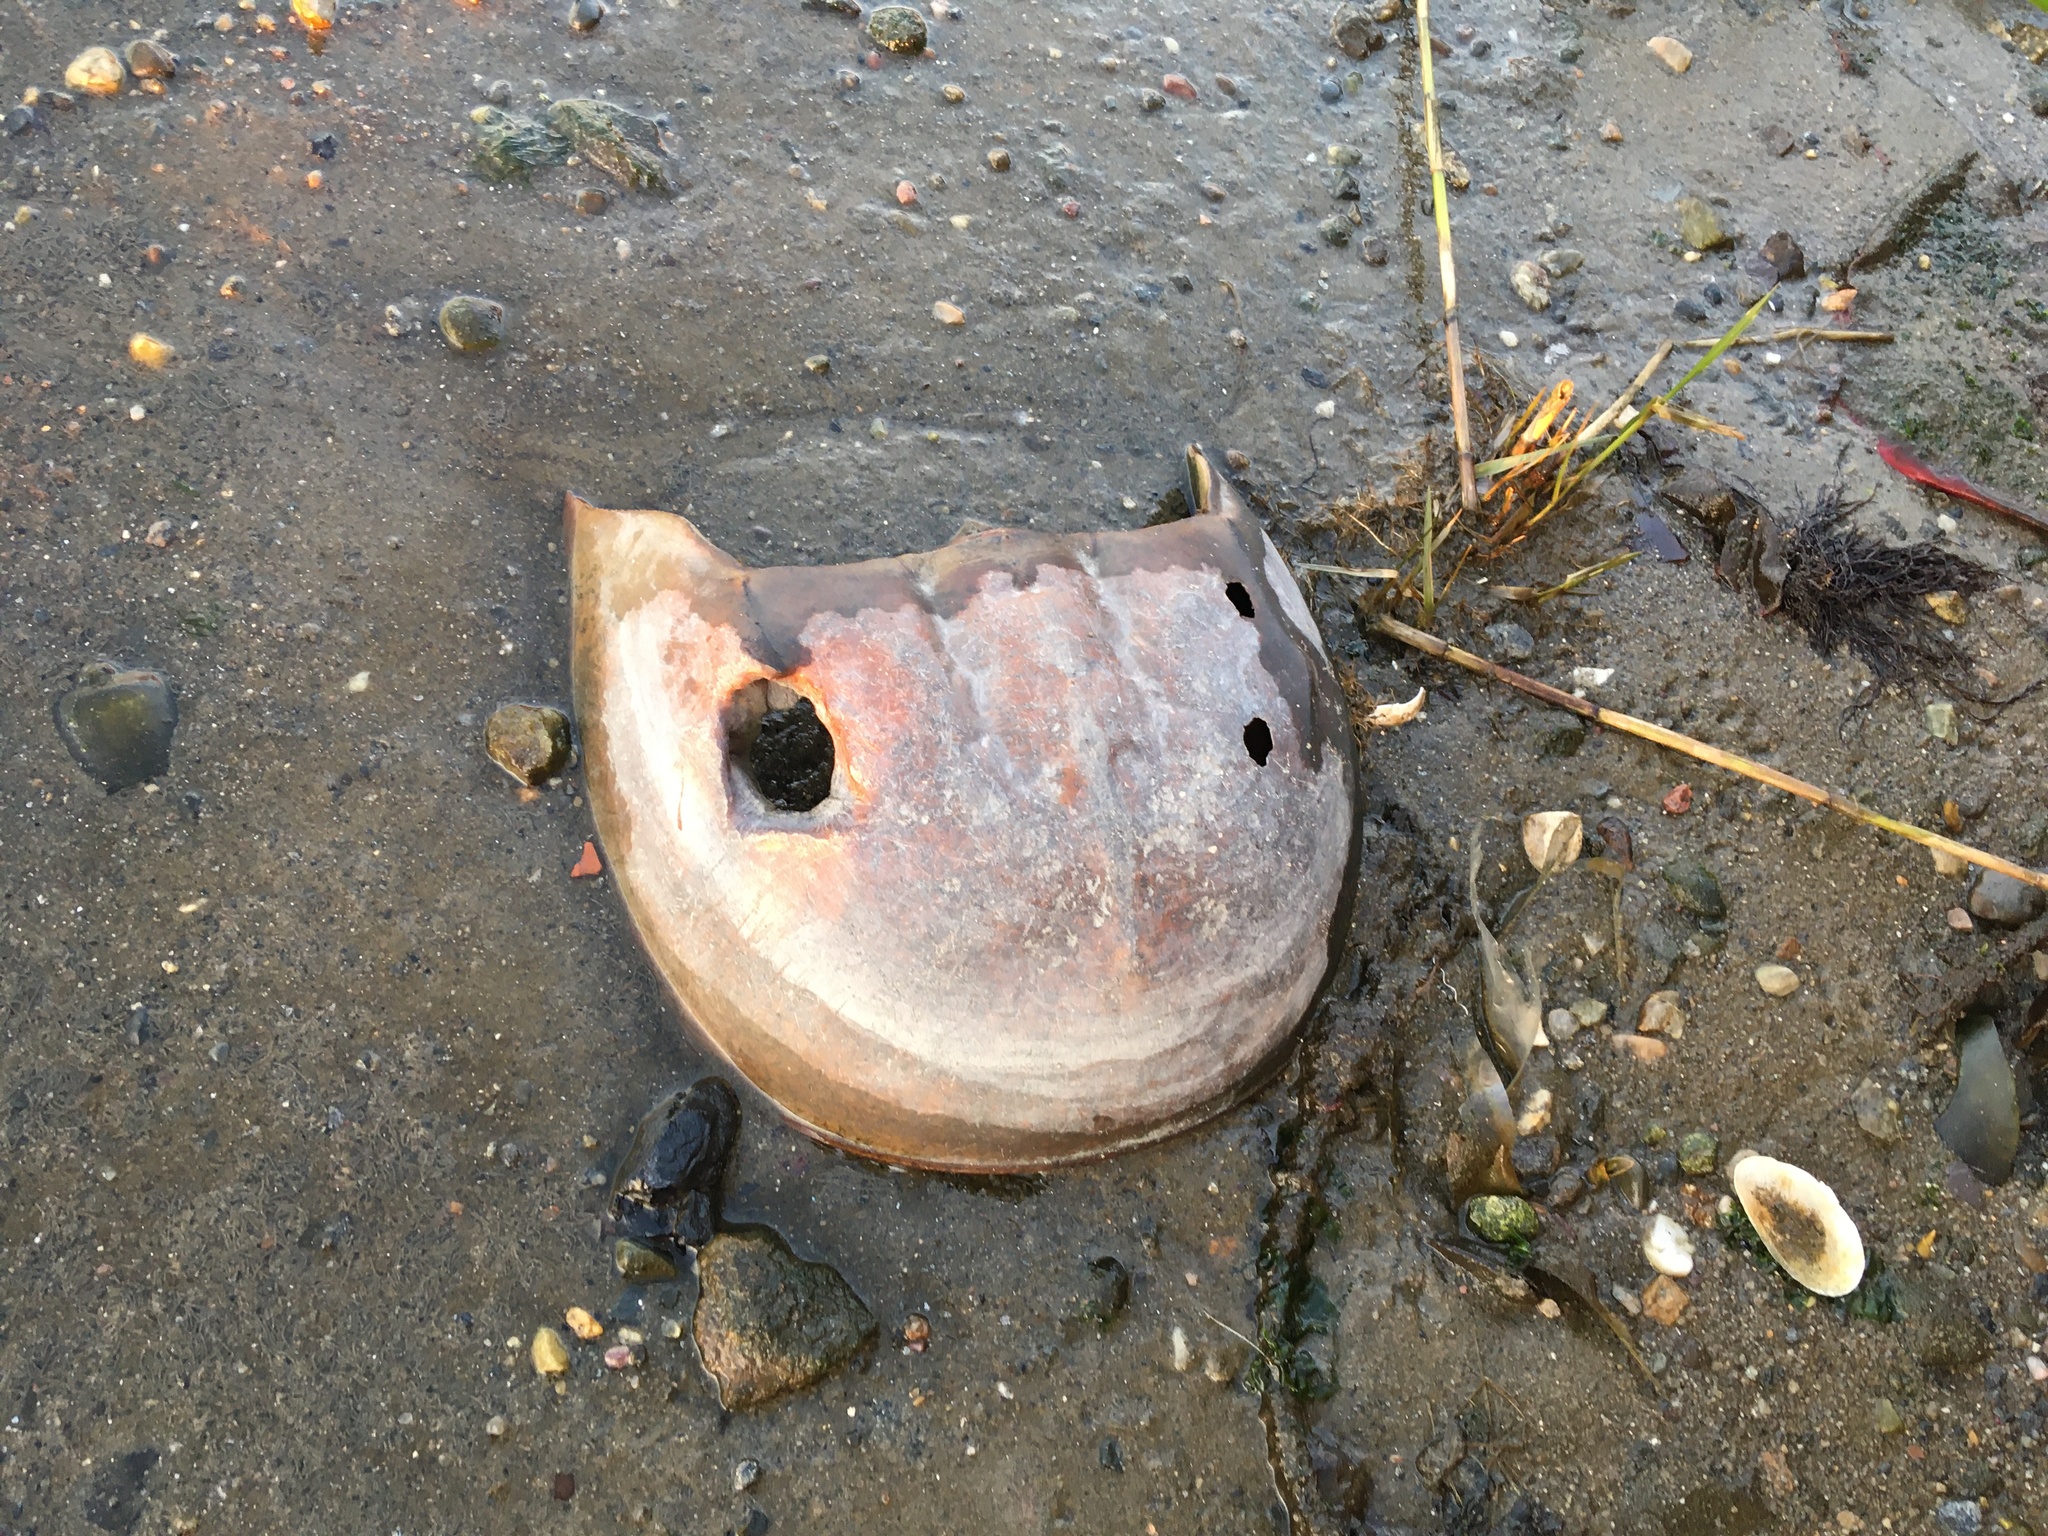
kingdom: Animalia
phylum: Arthropoda
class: Merostomata
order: Xiphosurida
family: Limulidae
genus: Limulus
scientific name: Limulus polyphemus
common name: Horseshoe crab
